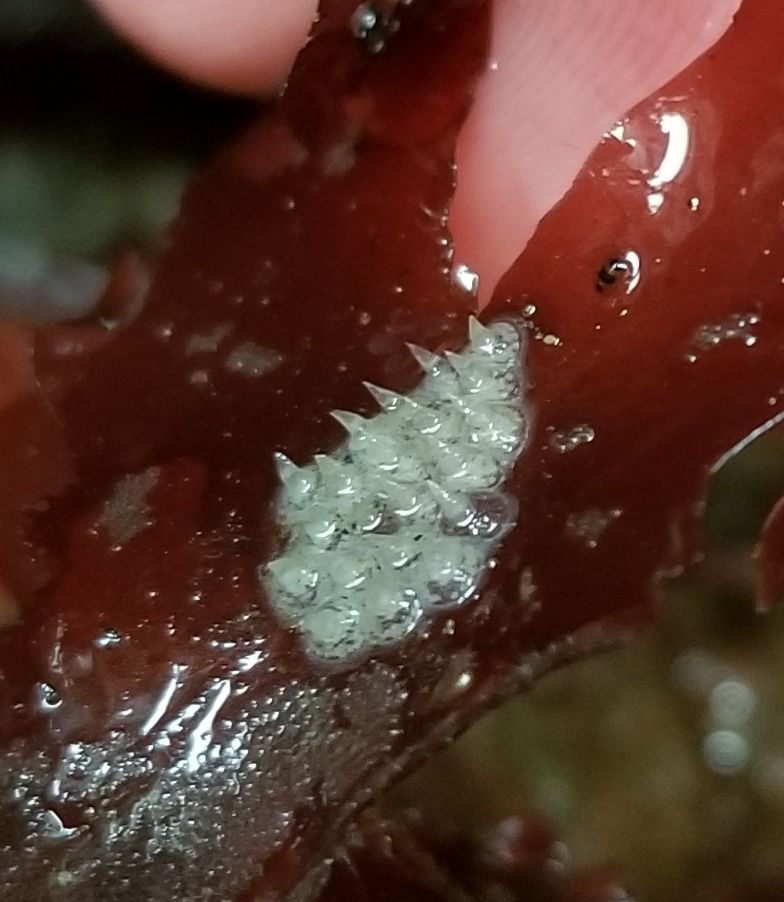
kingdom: Animalia
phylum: Mollusca
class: Gastropoda
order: Neogastropoda
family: Columbellidae
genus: Amphissa
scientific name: Amphissa columbiana
